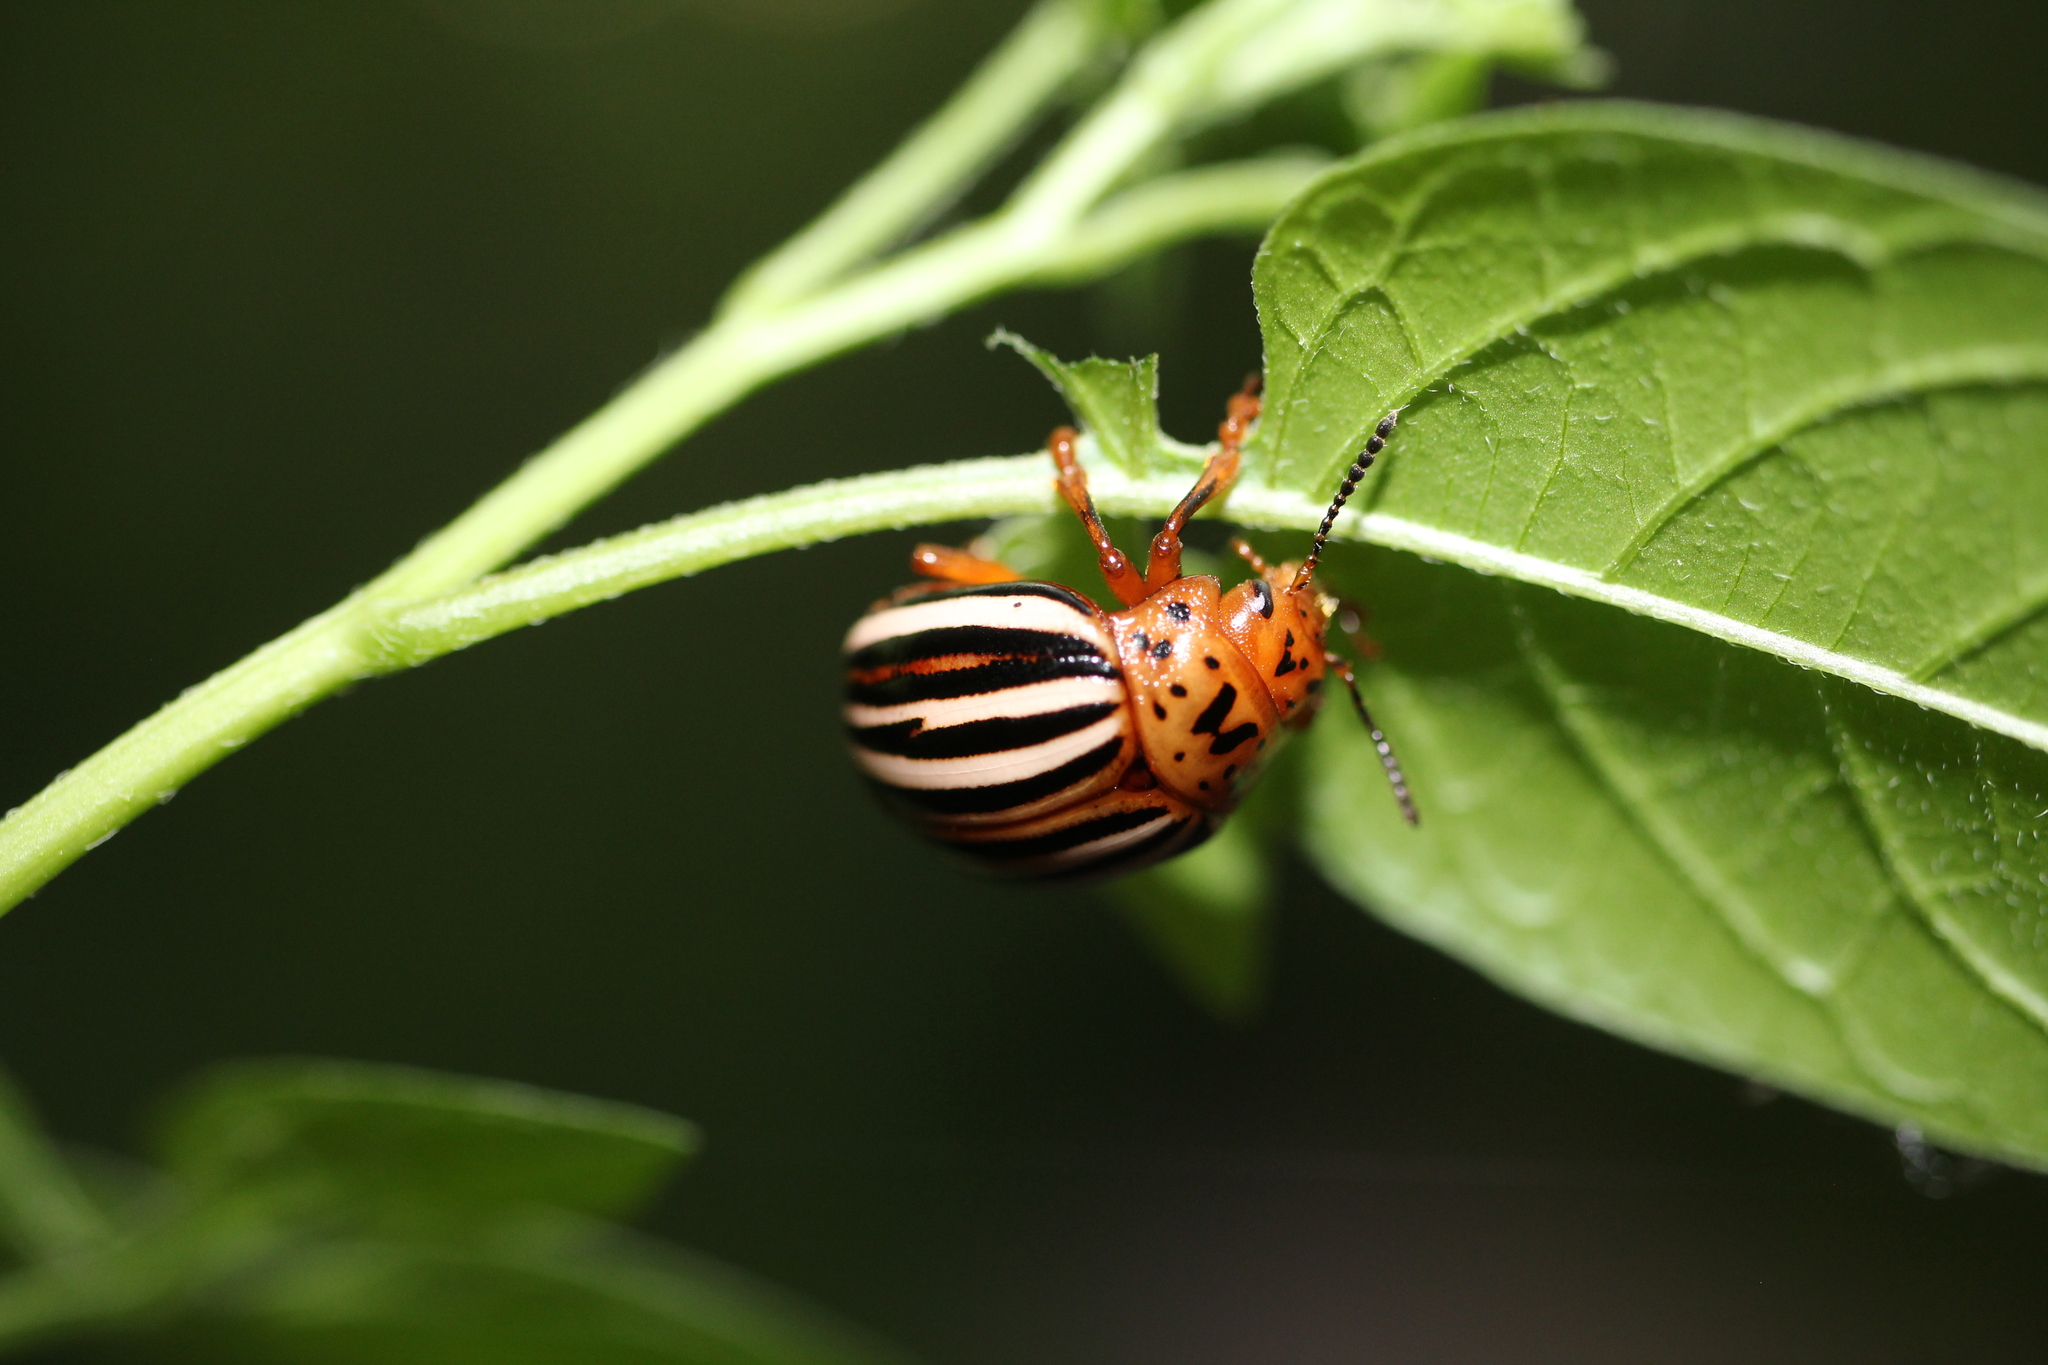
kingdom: Animalia
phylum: Arthropoda
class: Insecta
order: Coleoptera
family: Chrysomelidae
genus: Leptinotarsa
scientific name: Leptinotarsa juncta
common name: False potato beetle
